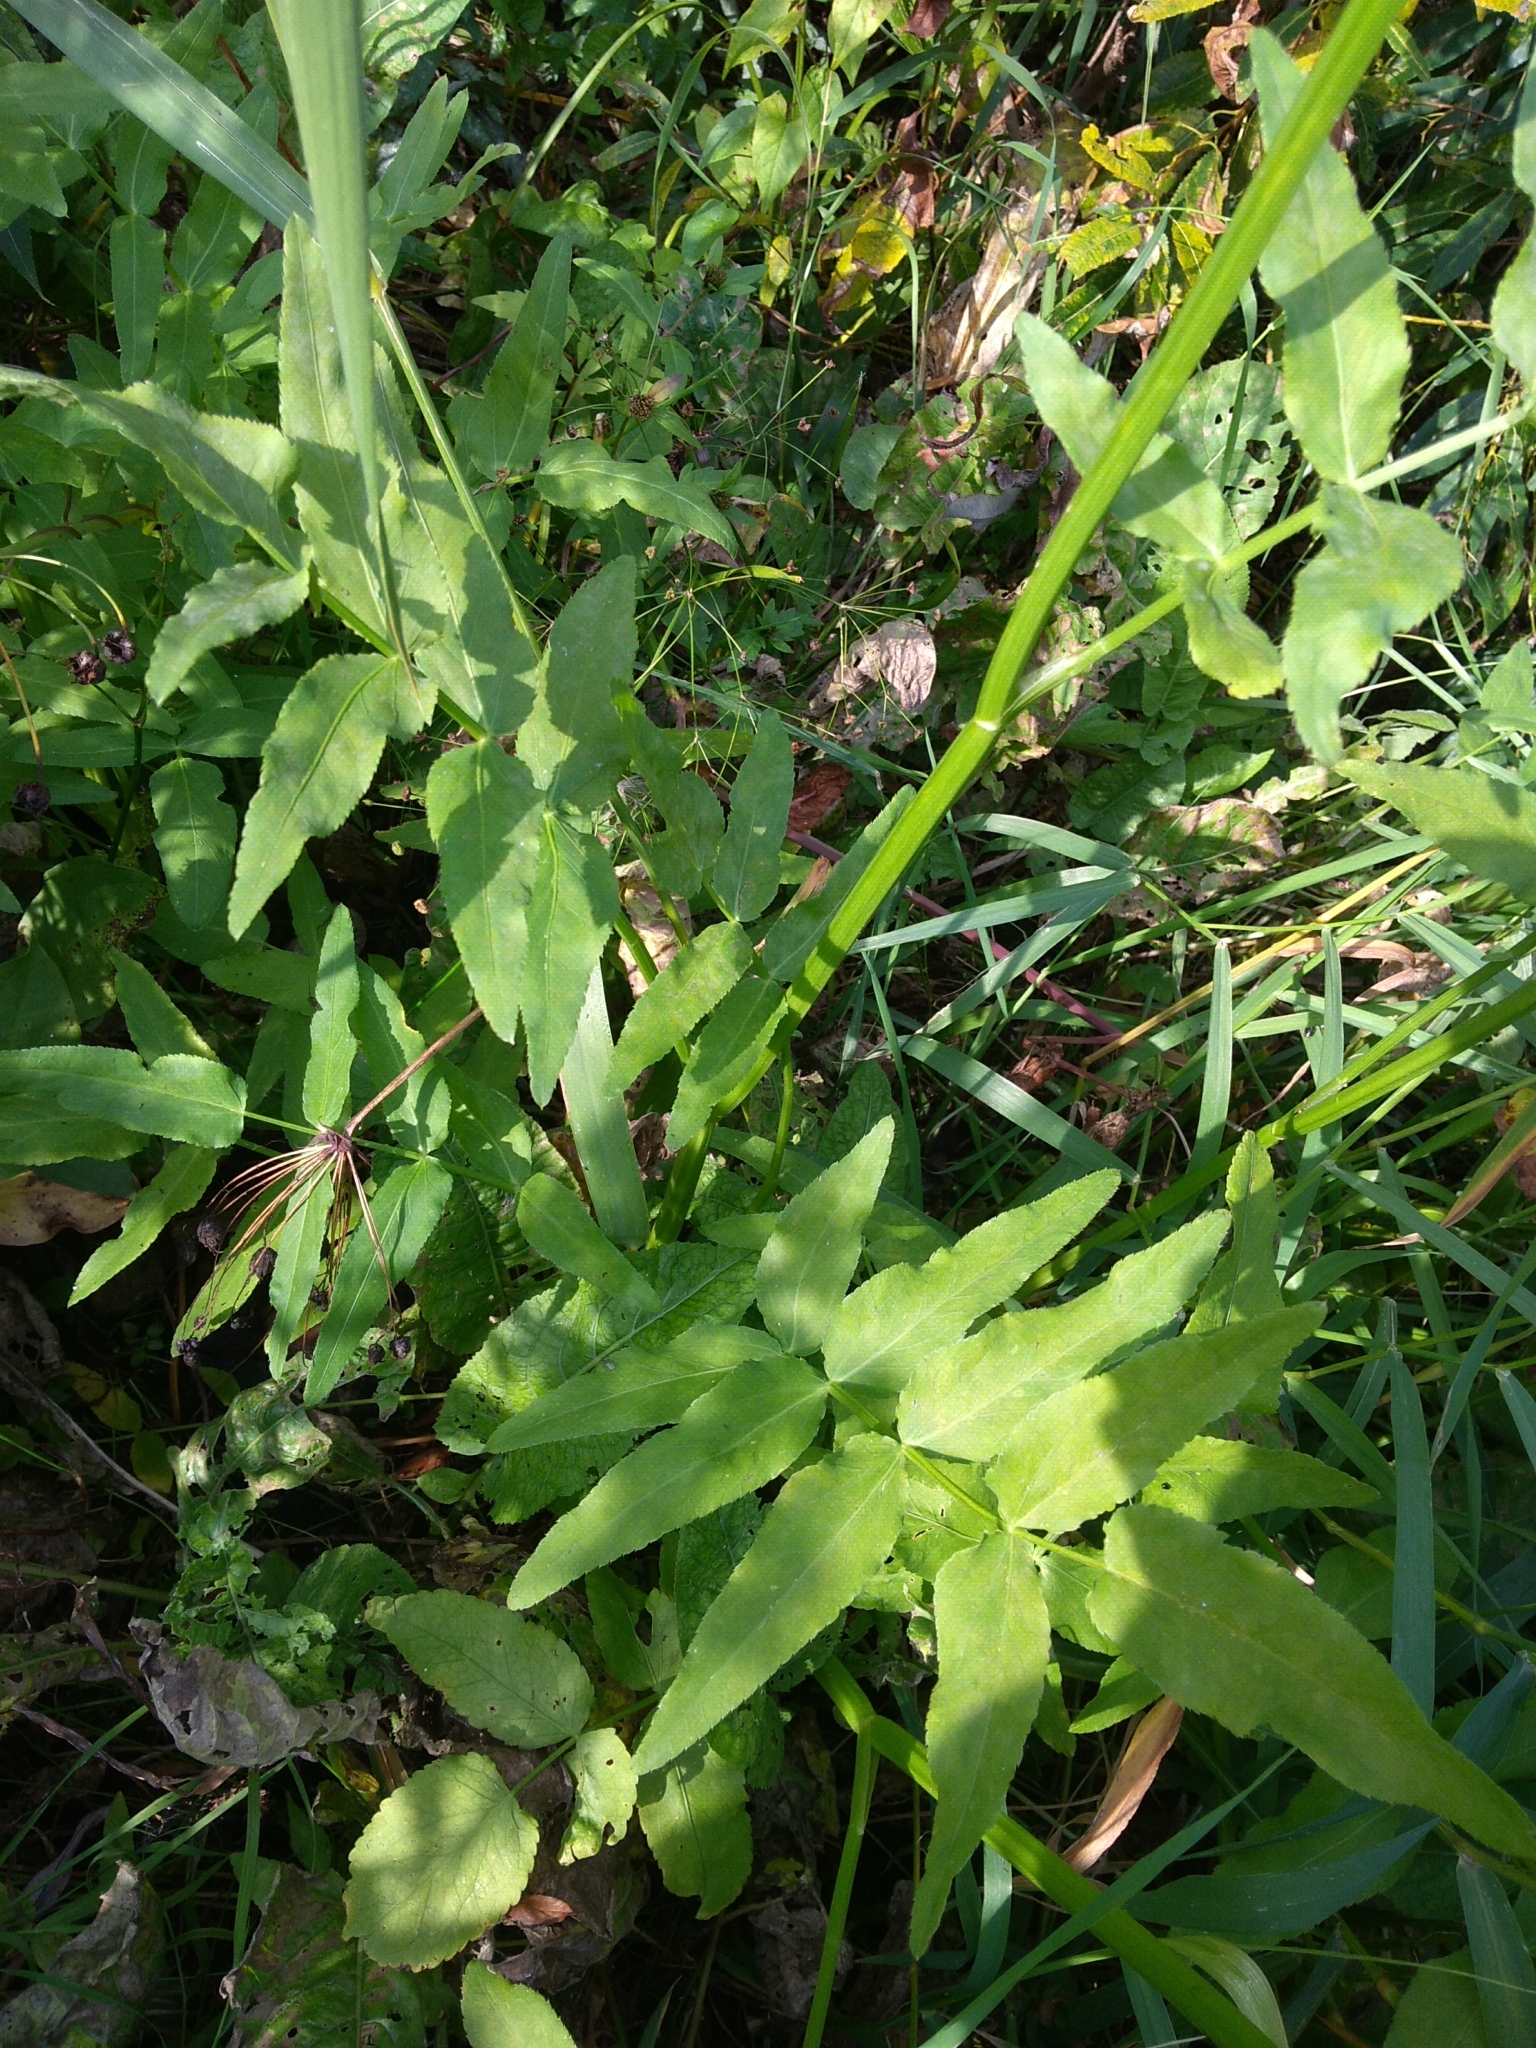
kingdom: Plantae
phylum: Tracheophyta
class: Magnoliopsida
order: Apiales
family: Apiaceae
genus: Sium
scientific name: Sium latifolium
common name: Greater water-parsnip
